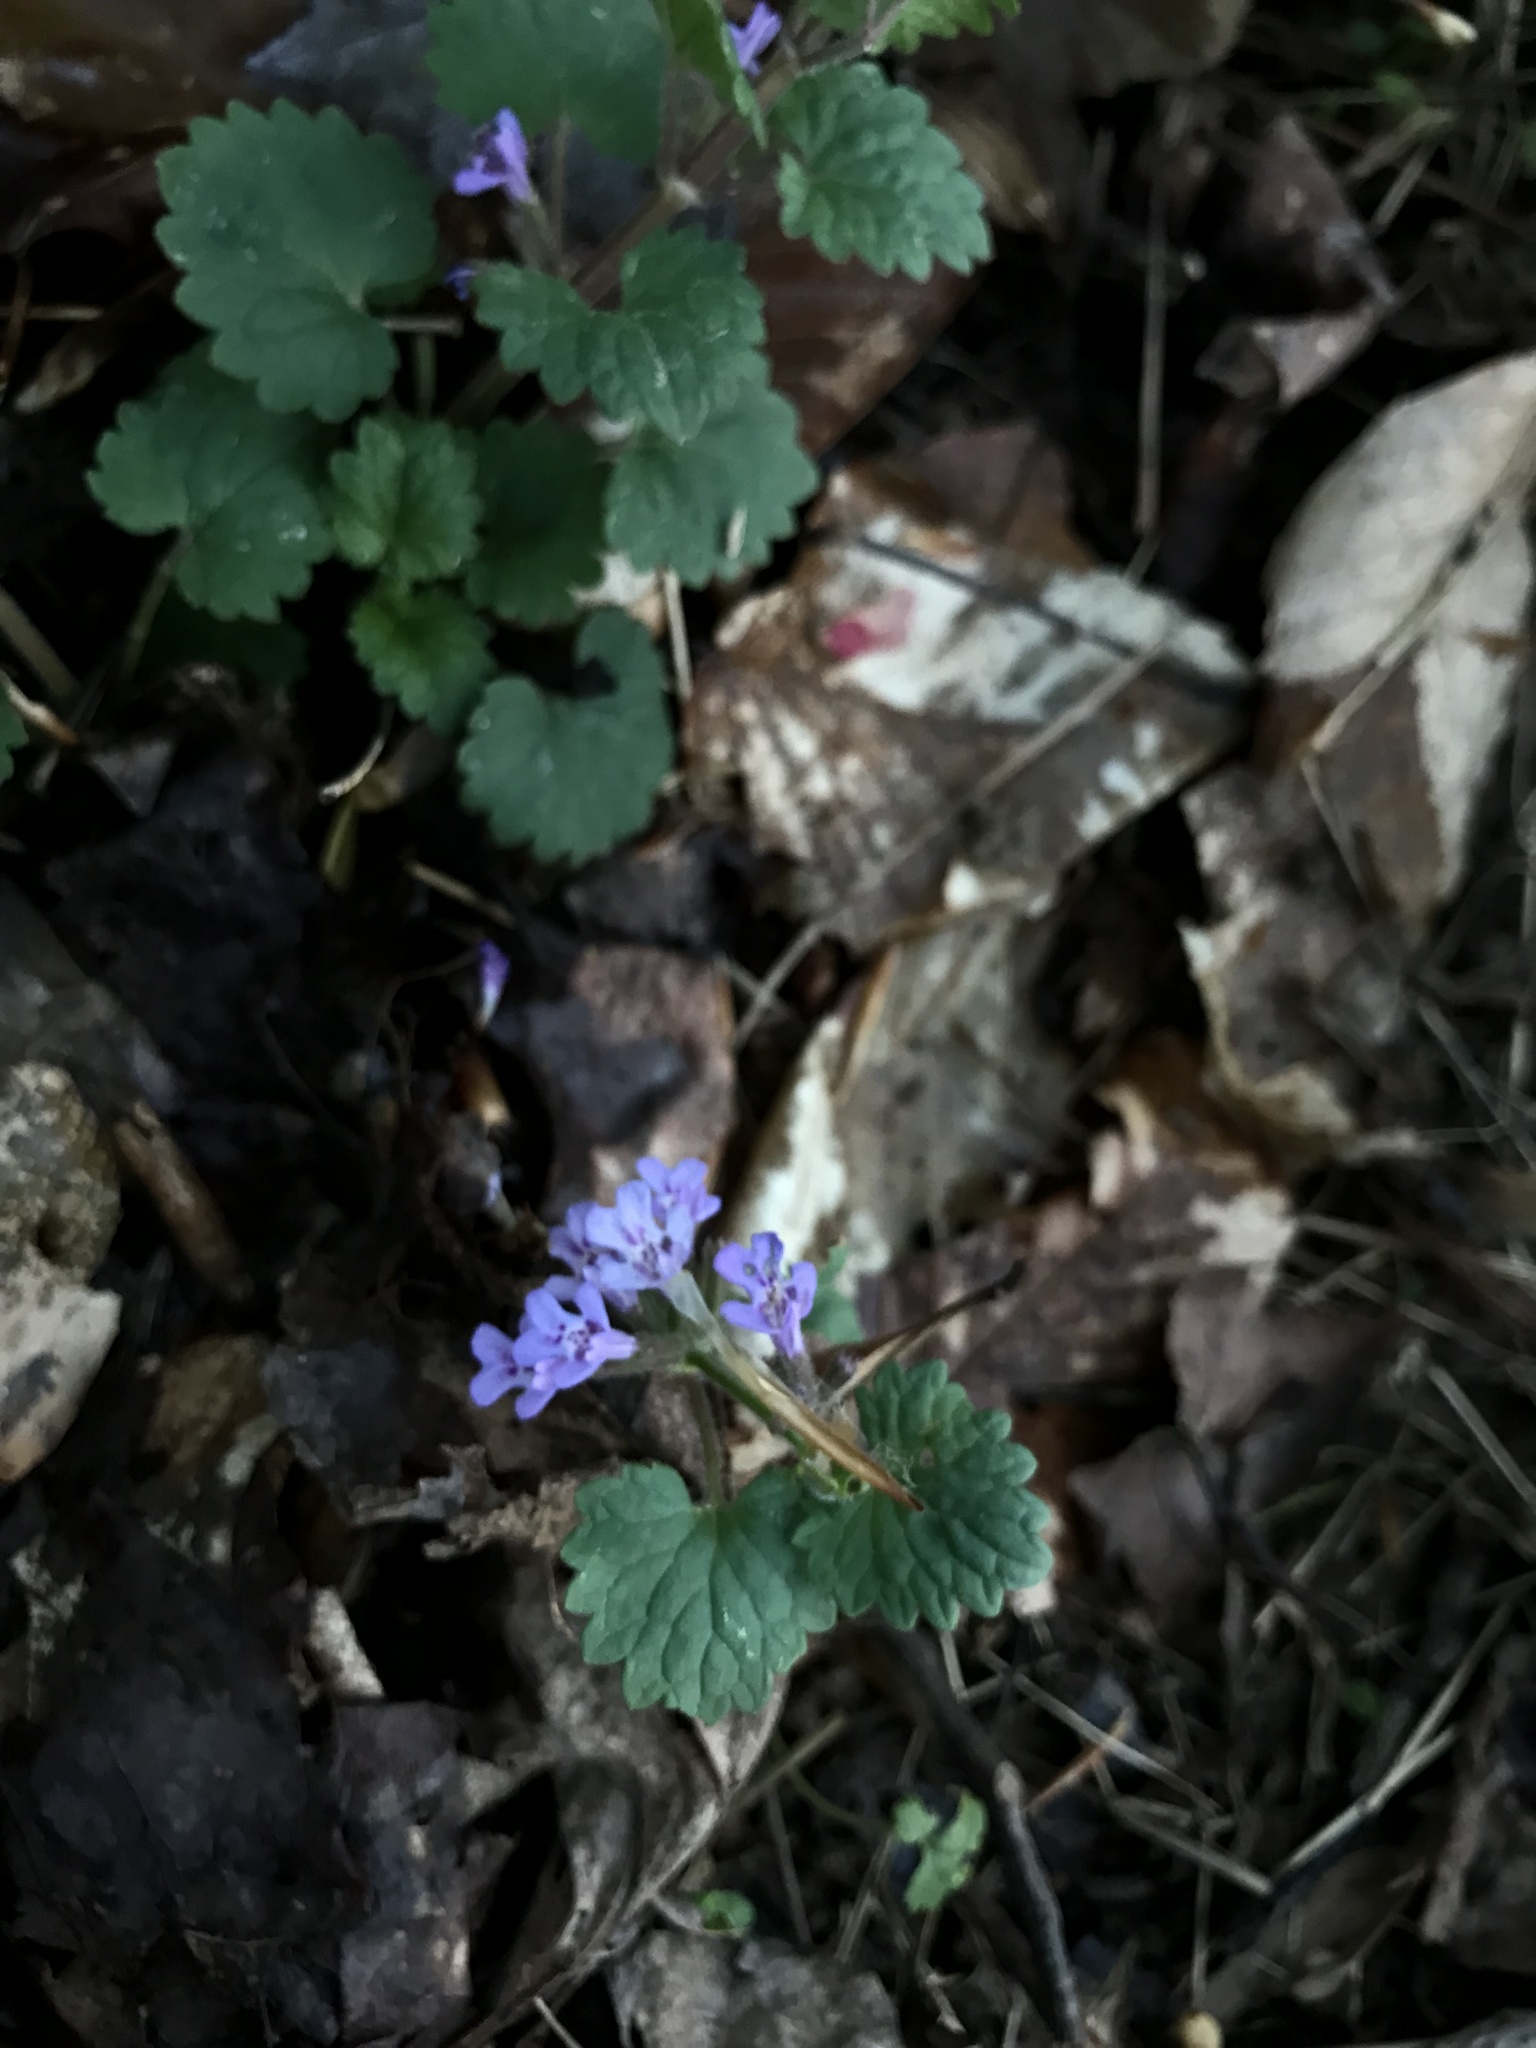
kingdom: Plantae
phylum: Tracheophyta
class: Magnoliopsida
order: Lamiales
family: Lamiaceae
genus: Glechoma
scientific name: Glechoma hederacea
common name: Ground ivy
